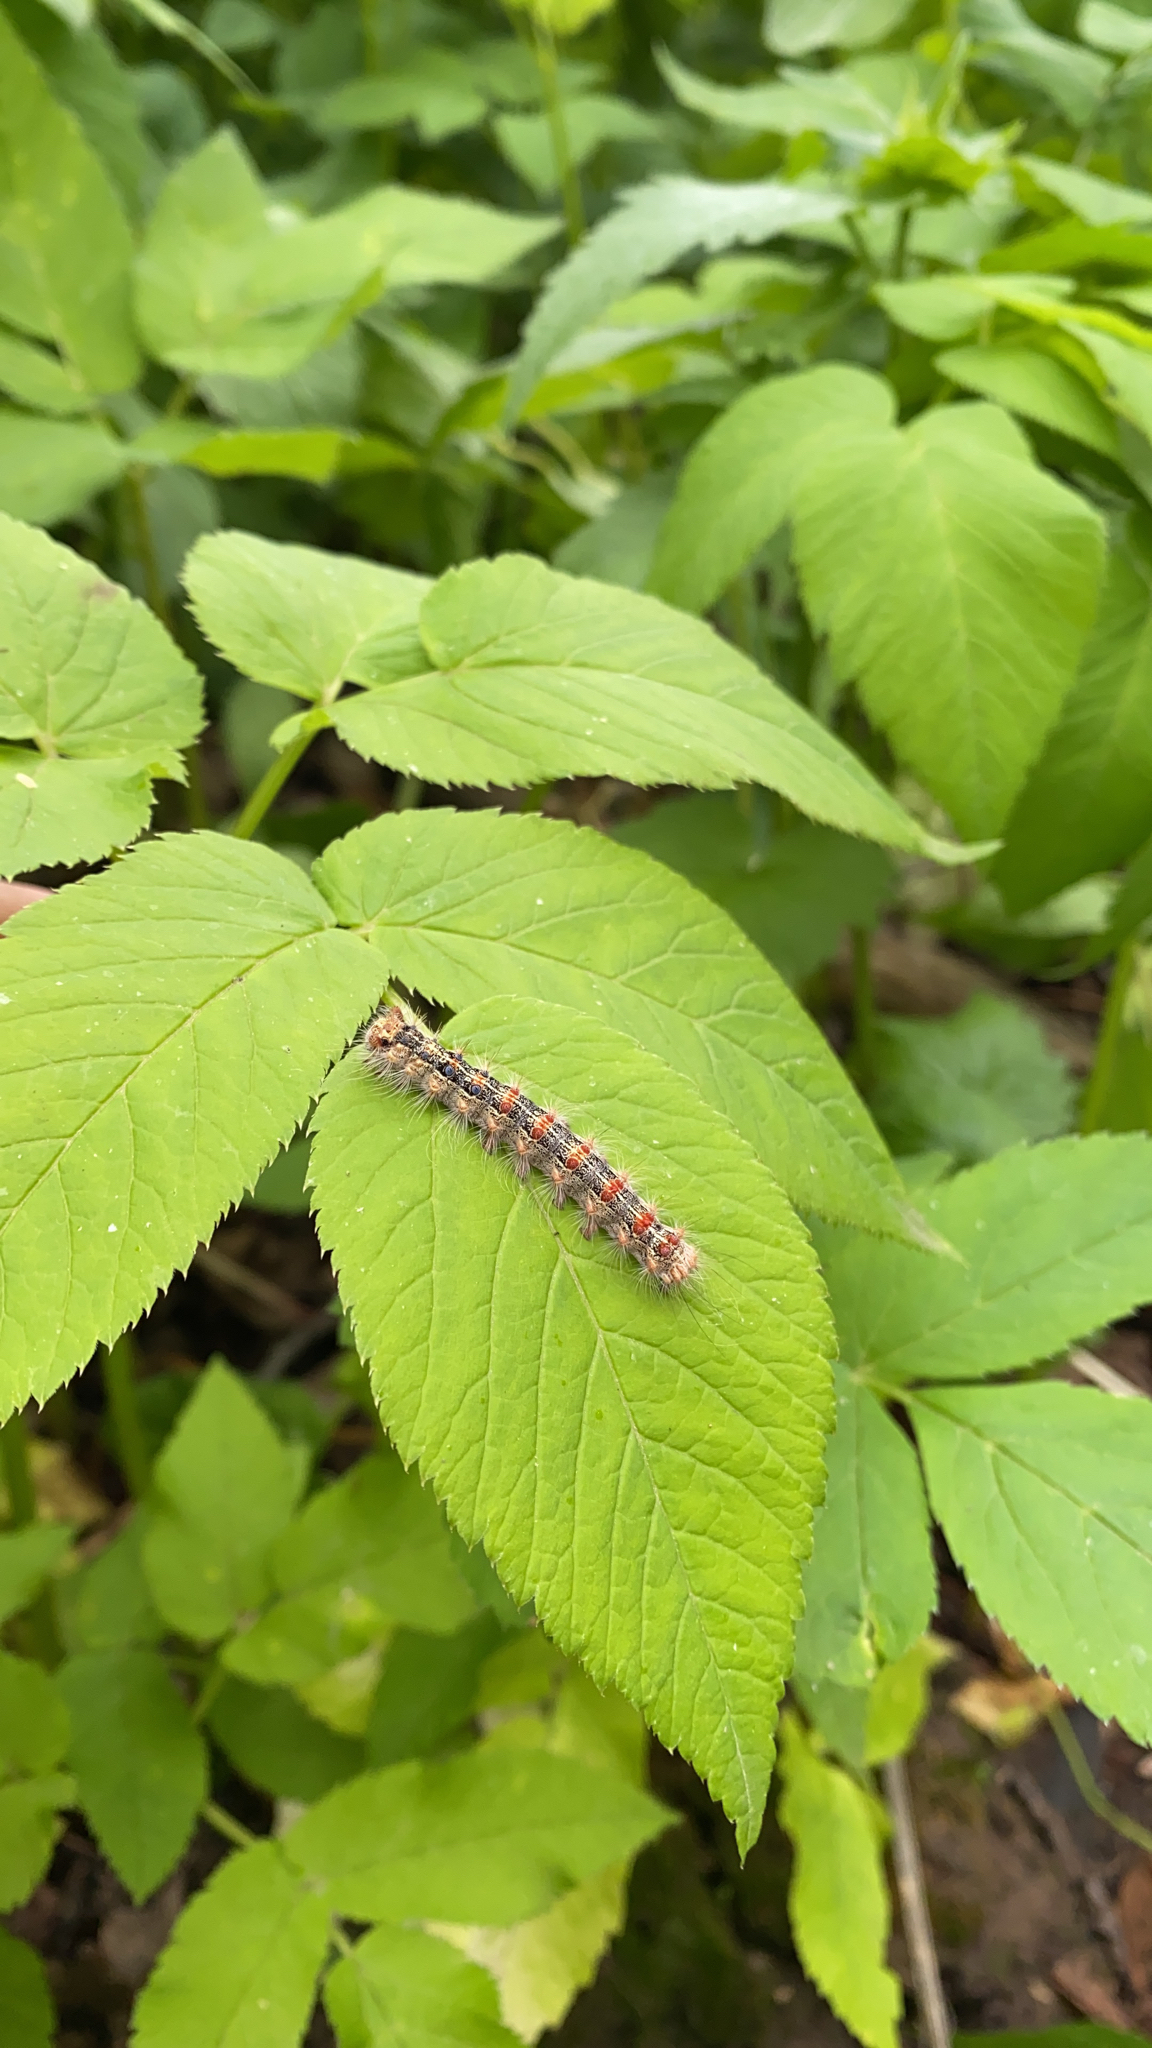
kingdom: Animalia
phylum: Arthropoda
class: Insecta
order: Lepidoptera
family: Erebidae
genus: Lymantria
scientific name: Lymantria dispar
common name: Gypsy moth
